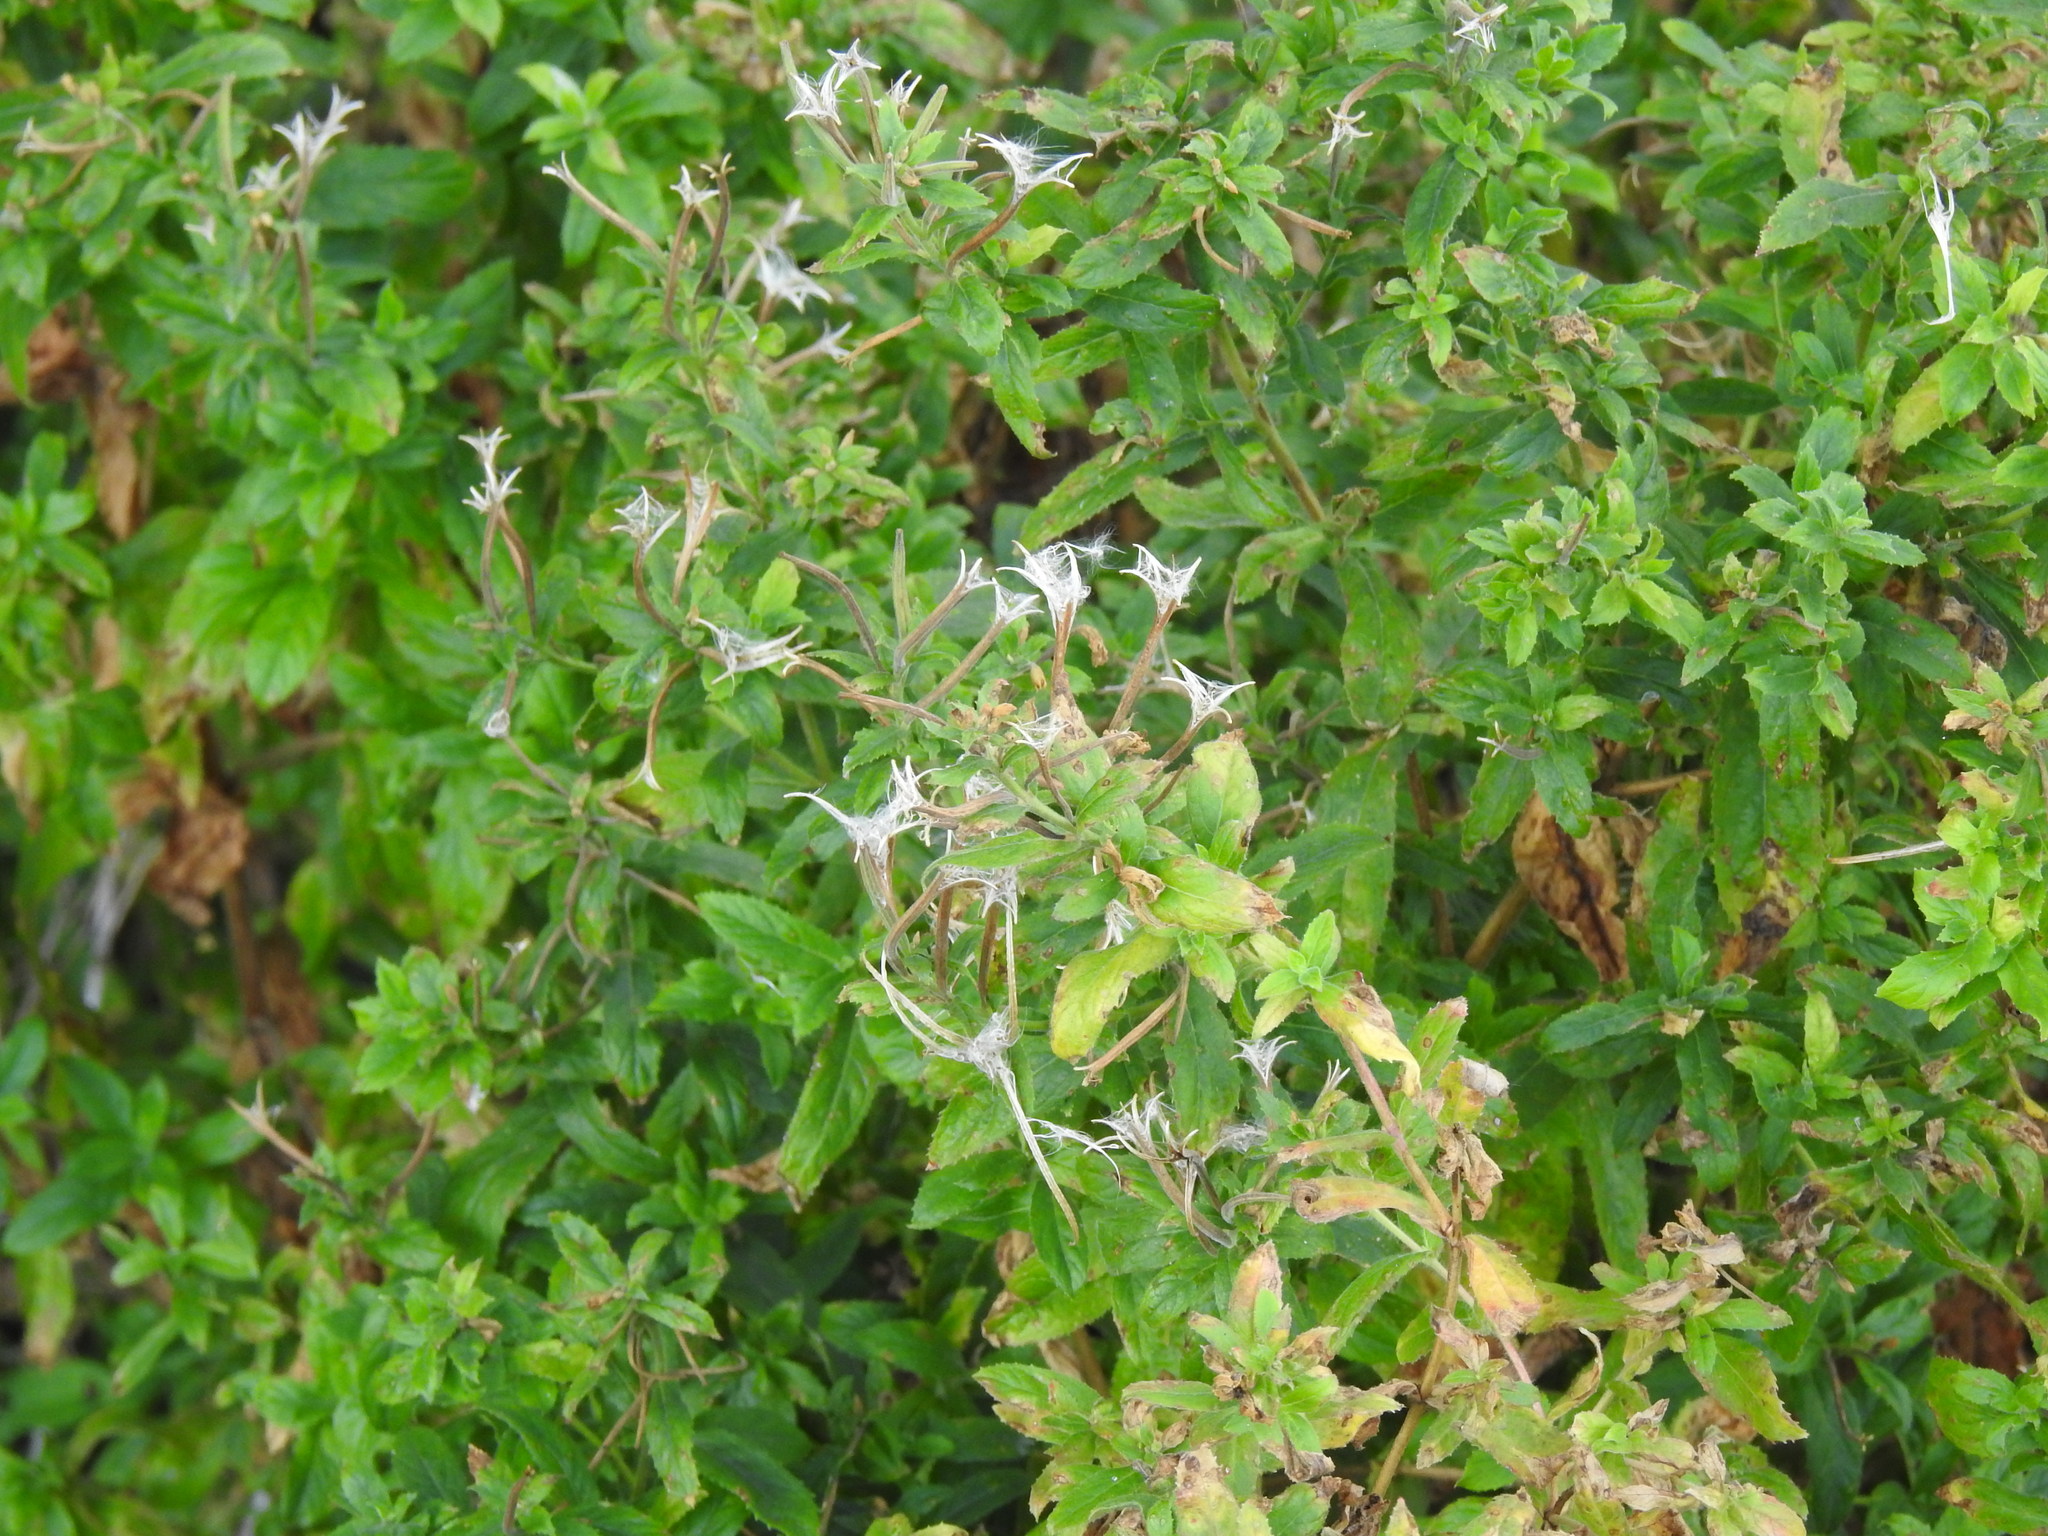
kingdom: Plantae
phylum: Tracheophyta
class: Magnoliopsida
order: Myrtales
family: Onagraceae
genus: Epilobium
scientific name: Epilobium hirsutum
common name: Great willowherb
